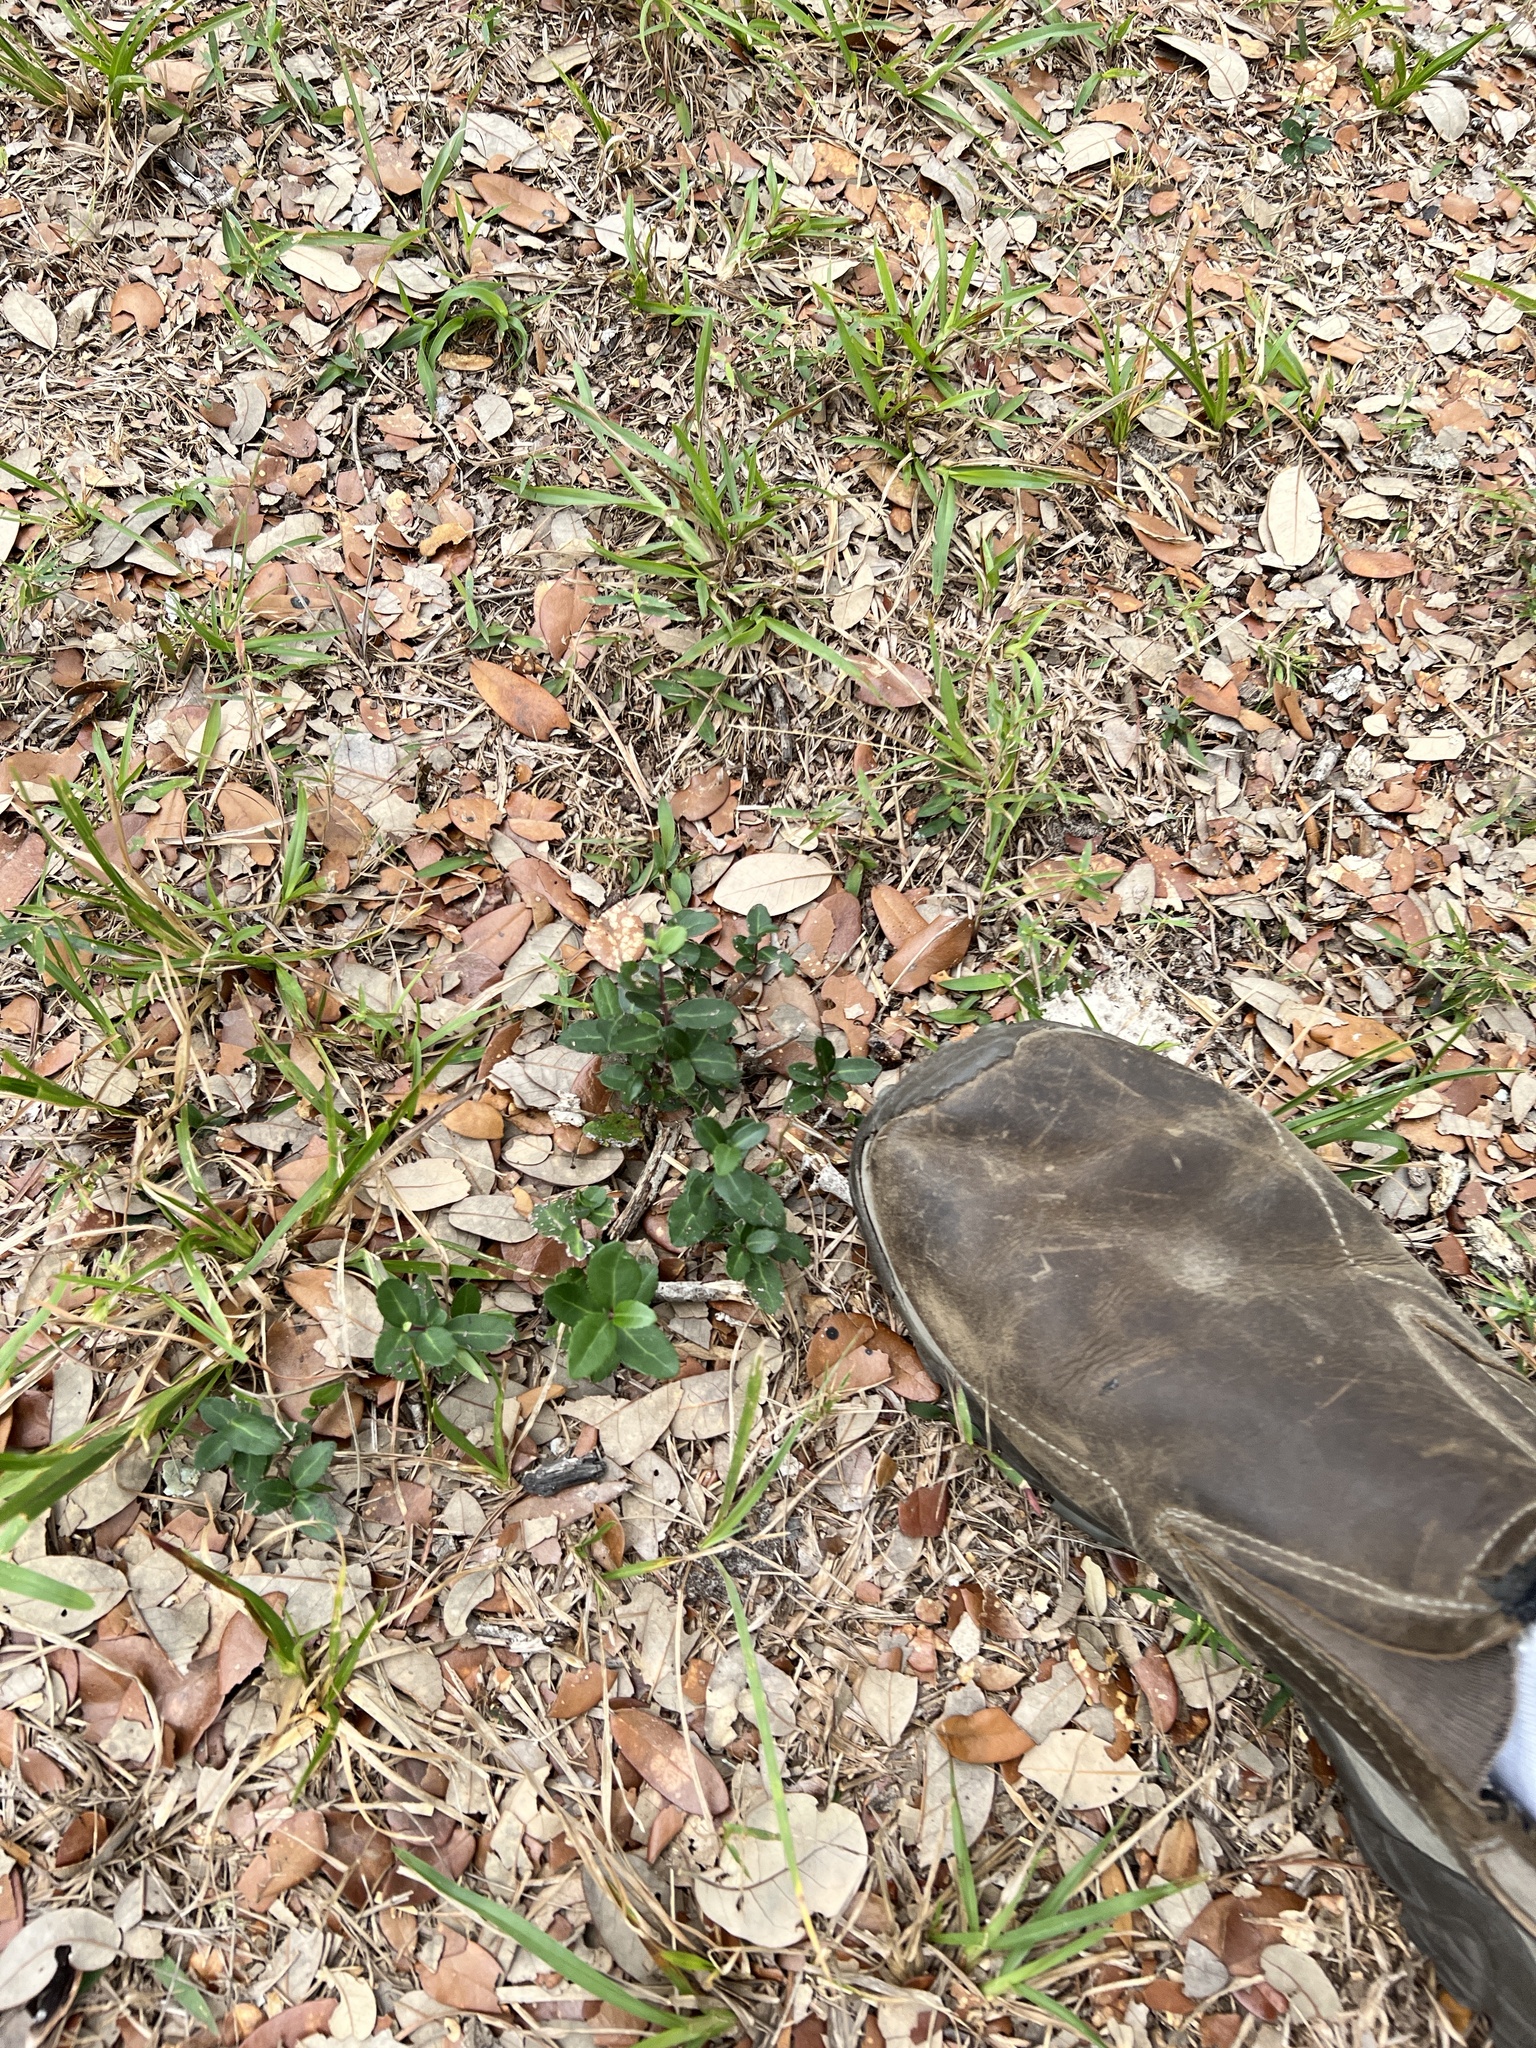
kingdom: Plantae
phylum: Tracheophyta
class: Magnoliopsida
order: Aquifoliales
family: Aquifoliaceae
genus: Ilex
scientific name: Ilex vomitoria
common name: Yaupon holly
